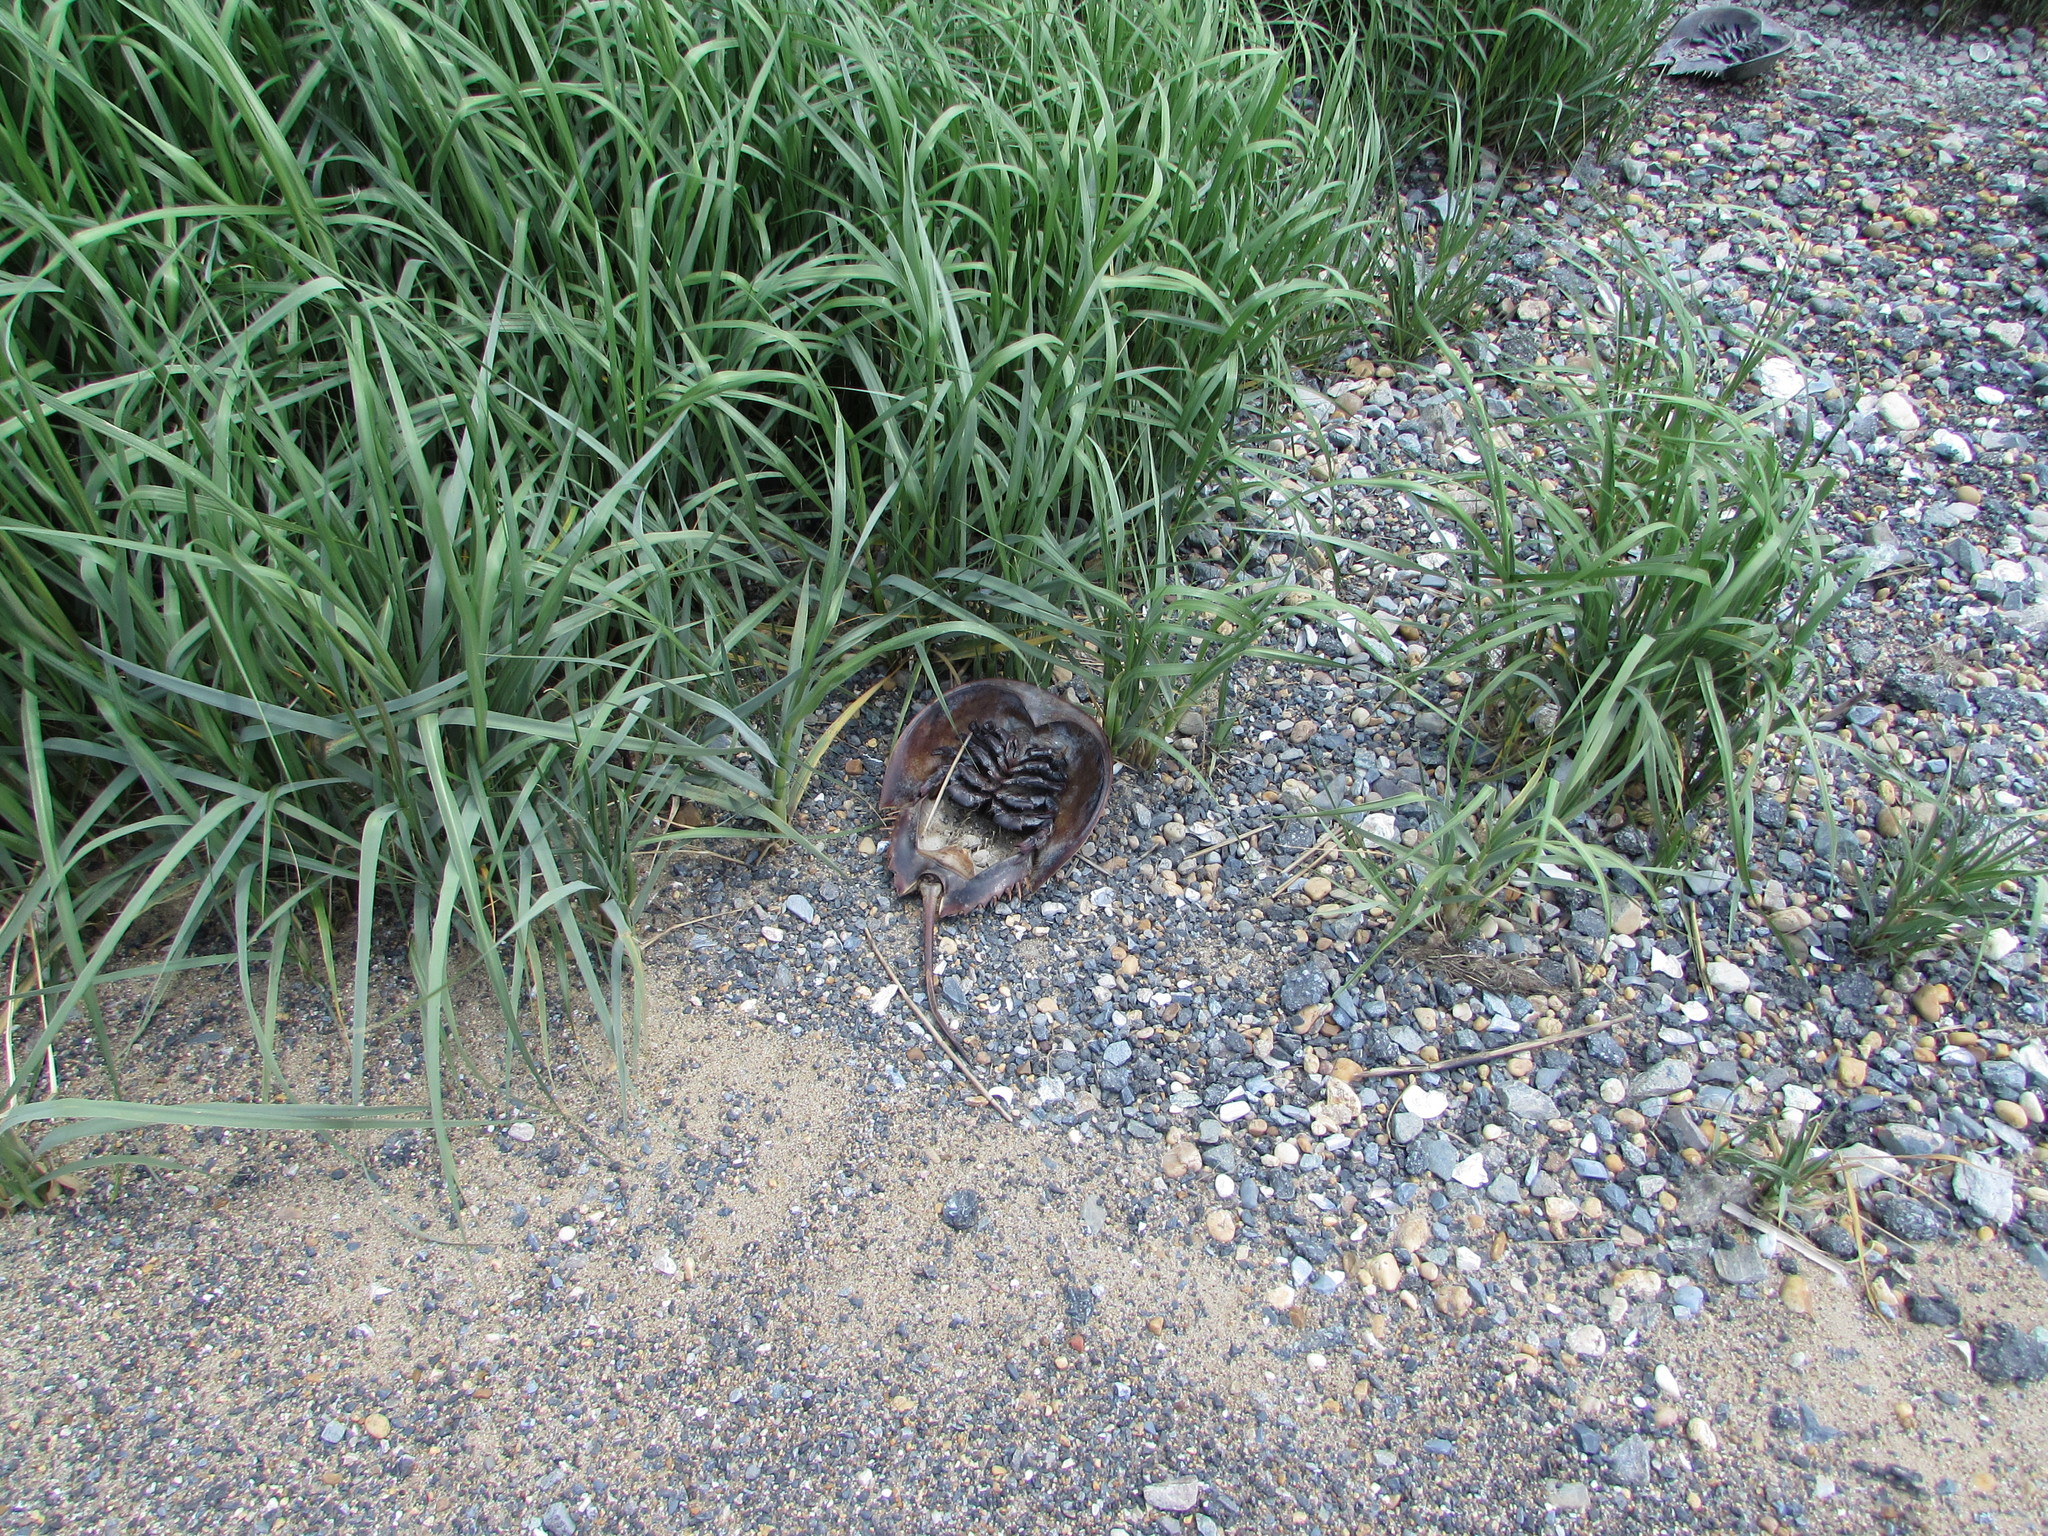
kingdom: Animalia
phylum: Arthropoda
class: Merostomata
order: Xiphosurida
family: Limulidae
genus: Limulus
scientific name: Limulus polyphemus
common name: Horseshoe crab
